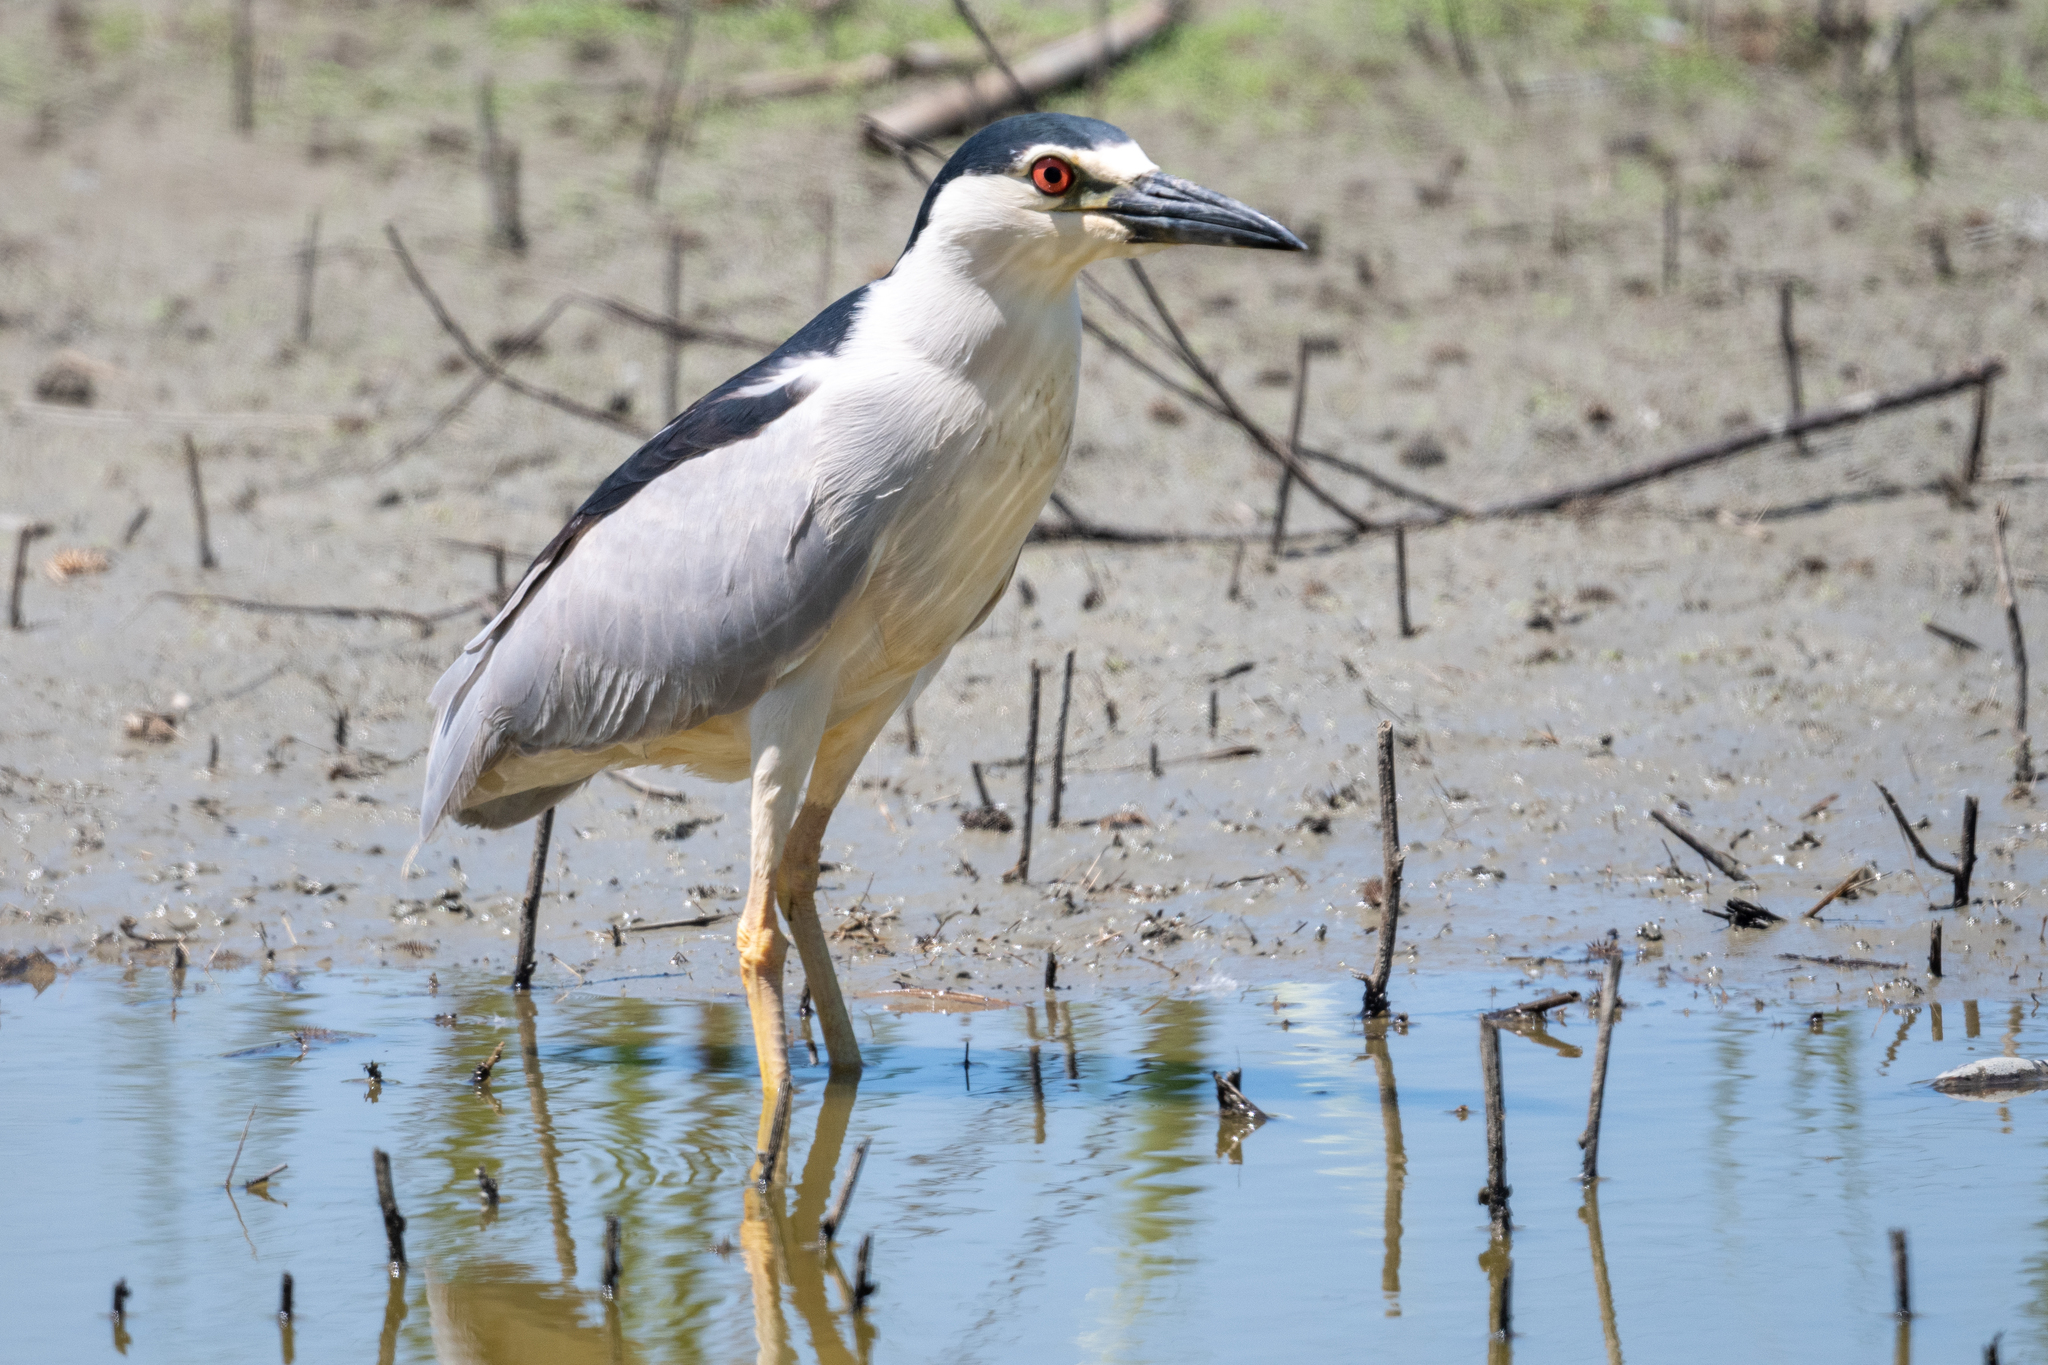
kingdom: Animalia
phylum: Chordata
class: Aves
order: Pelecaniformes
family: Ardeidae
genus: Nycticorax
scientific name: Nycticorax nycticorax
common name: Black-crowned night heron
